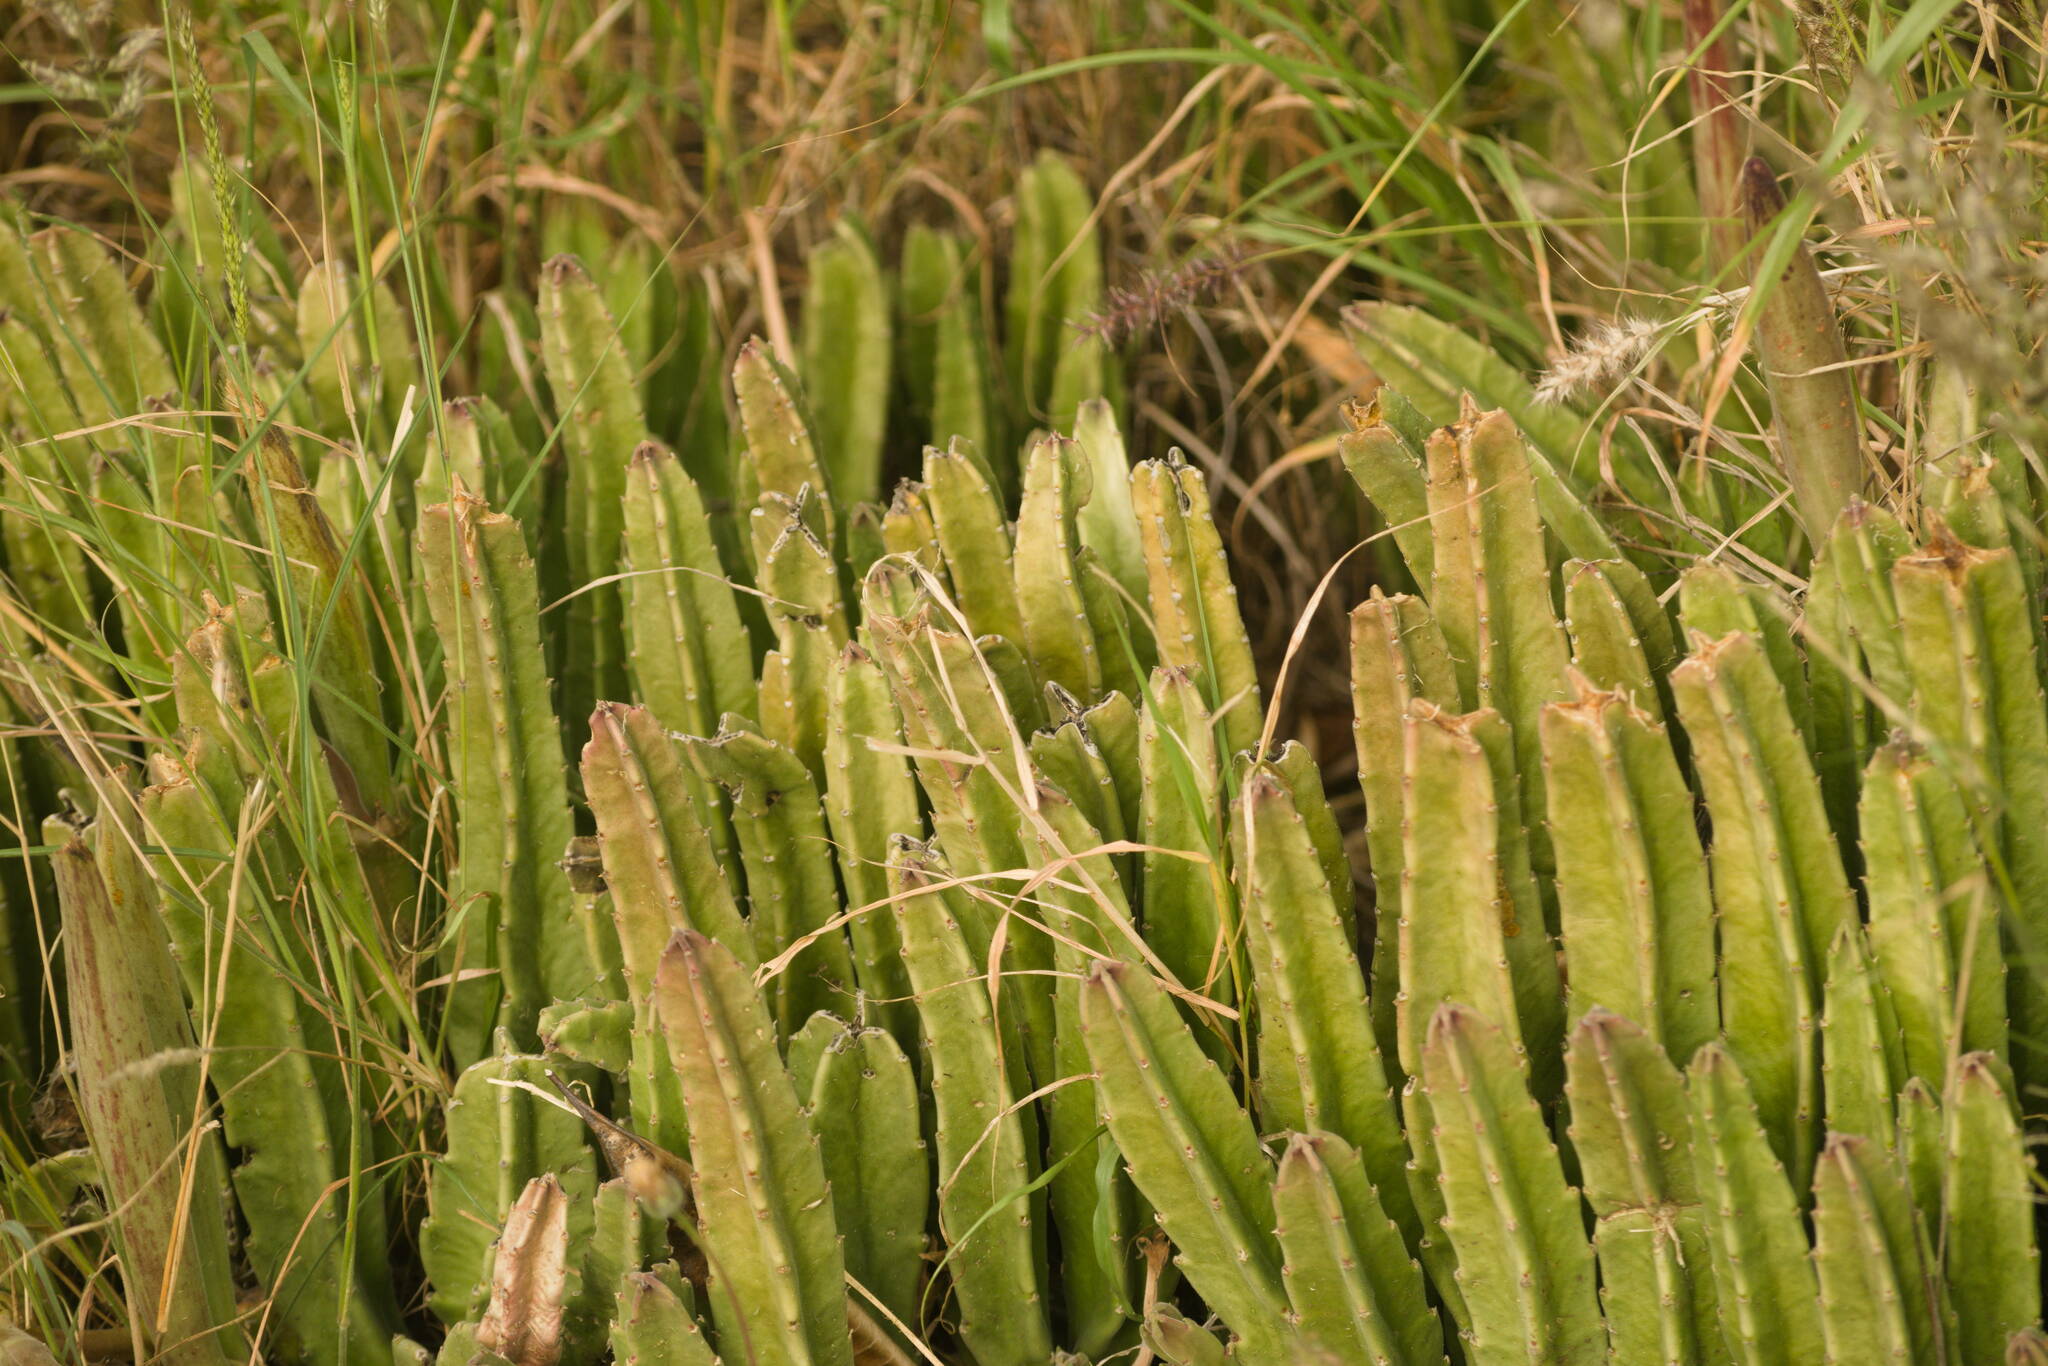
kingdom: Plantae
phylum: Tracheophyta
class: Magnoliopsida
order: Gentianales
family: Apocynaceae
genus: Ceropegia
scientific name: Ceropegia gigantea
